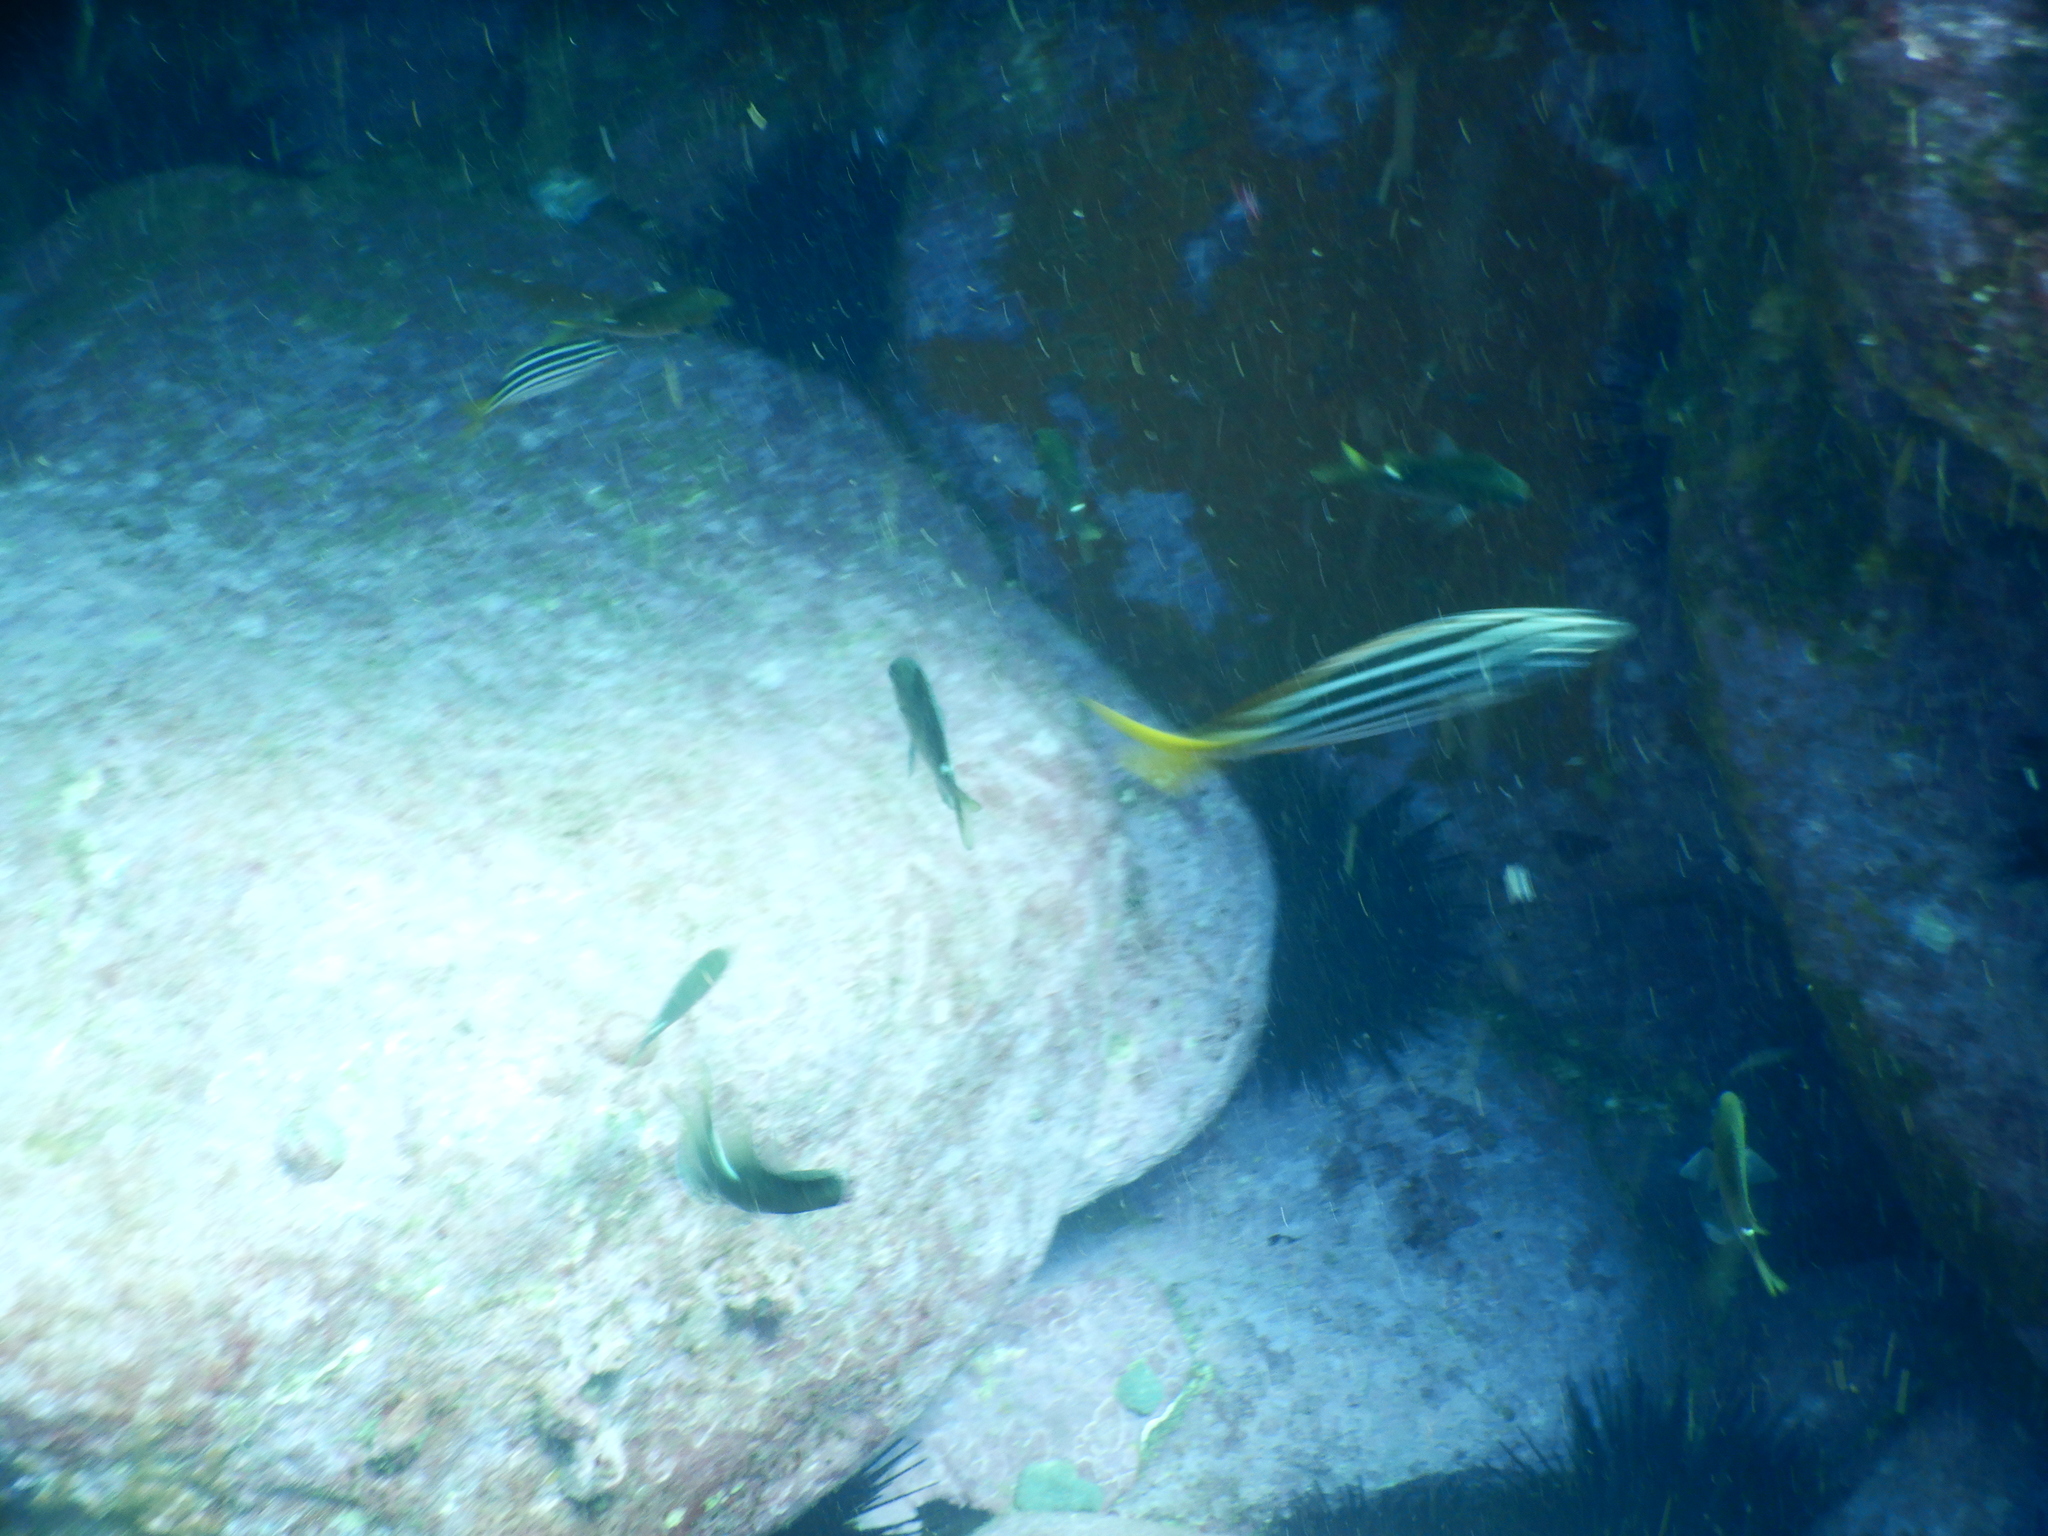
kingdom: Animalia
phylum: Chordata
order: Perciformes
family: Kyphosidae
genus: Atypichthys
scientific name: Atypichthys strigatus
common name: Australian mado
